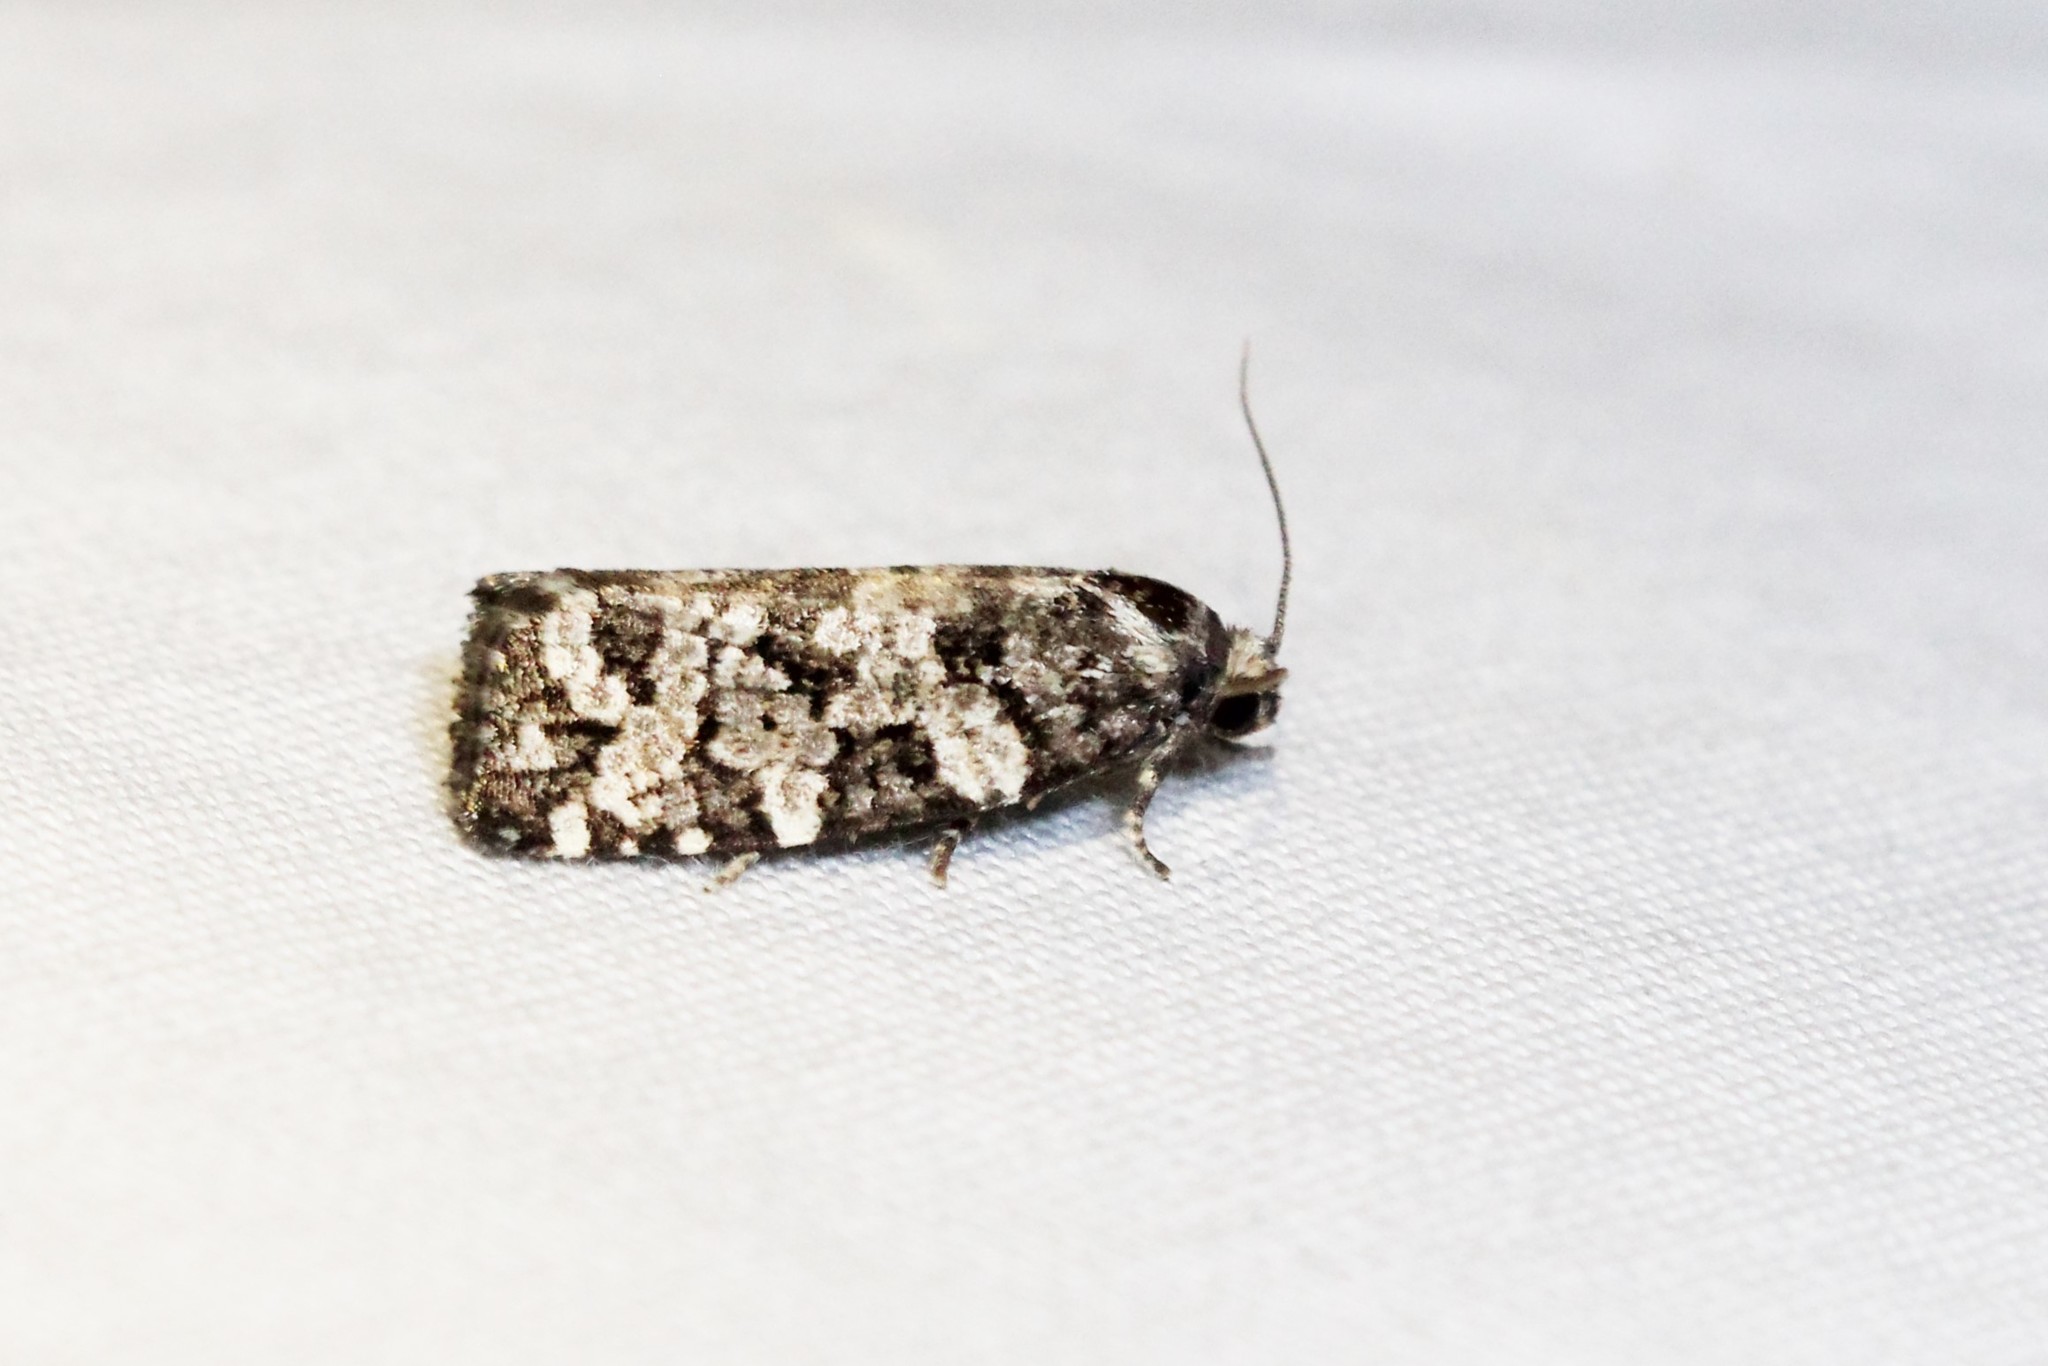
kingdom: Animalia
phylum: Arthropoda
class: Insecta
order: Lepidoptera
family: Tortricidae
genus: Archips
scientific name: Archips packardiana
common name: Spring spruce needle moth
